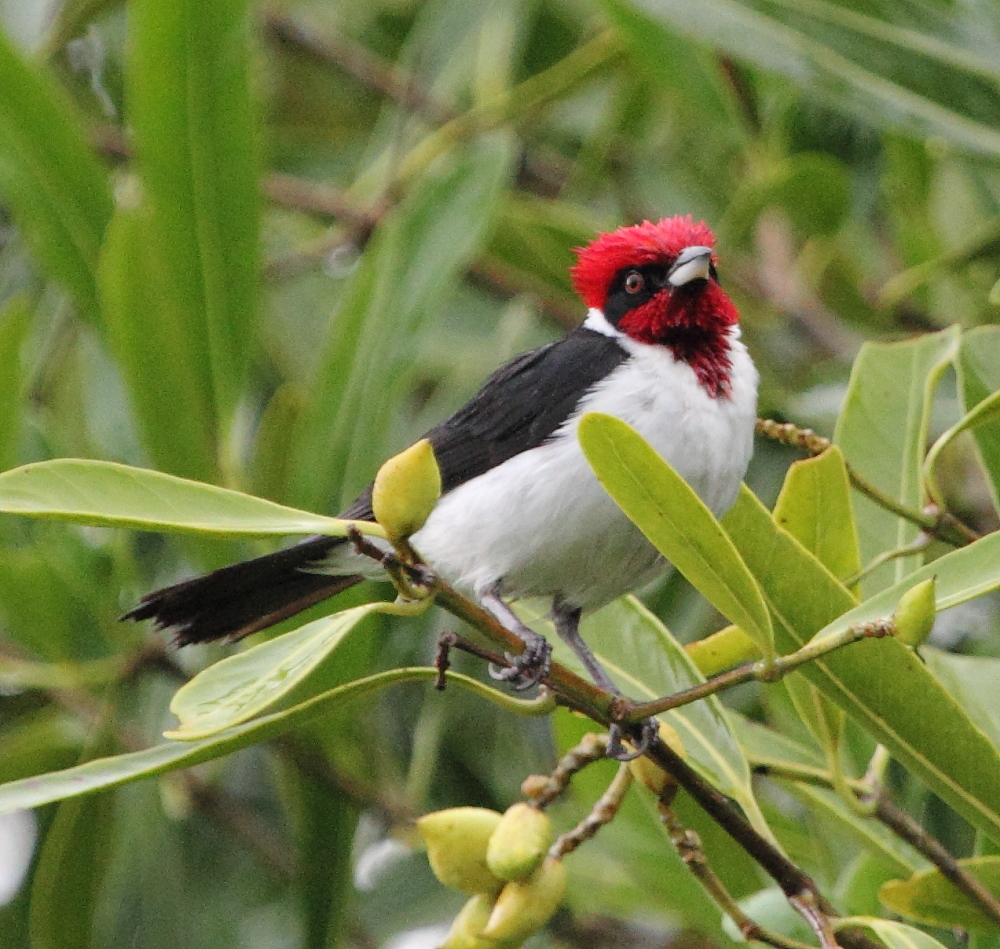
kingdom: Animalia
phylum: Chordata
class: Aves
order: Passeriformes
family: Thraupidae
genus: Paroaria
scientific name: Paroaria nigrogenis
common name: Masked cardinal
